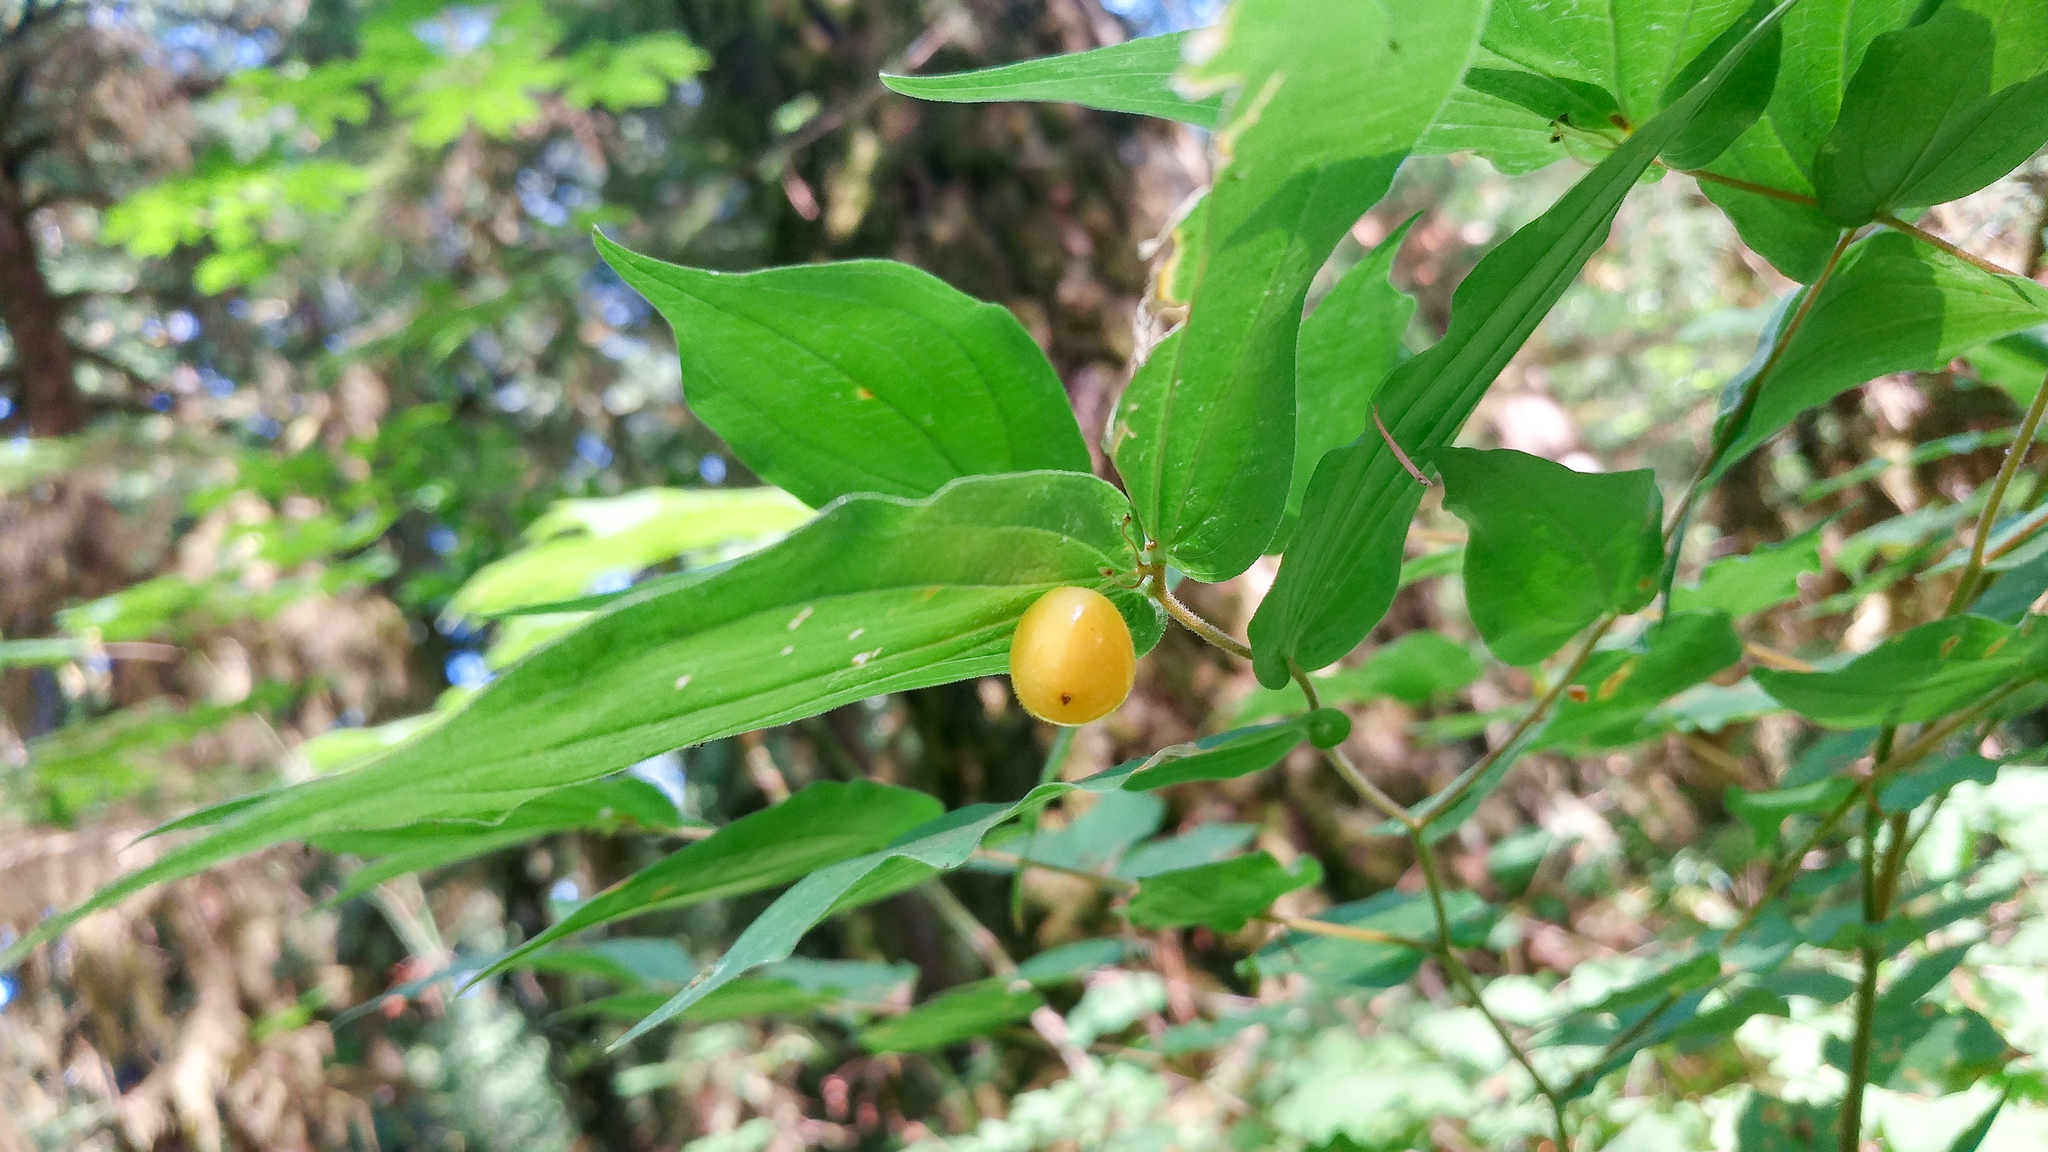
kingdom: Plantae
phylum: Tracheophyta
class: Liliopsida
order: Liliales
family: Liliaceae
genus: Prosartes
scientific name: Prosartes hookeri
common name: Fairy-bells
